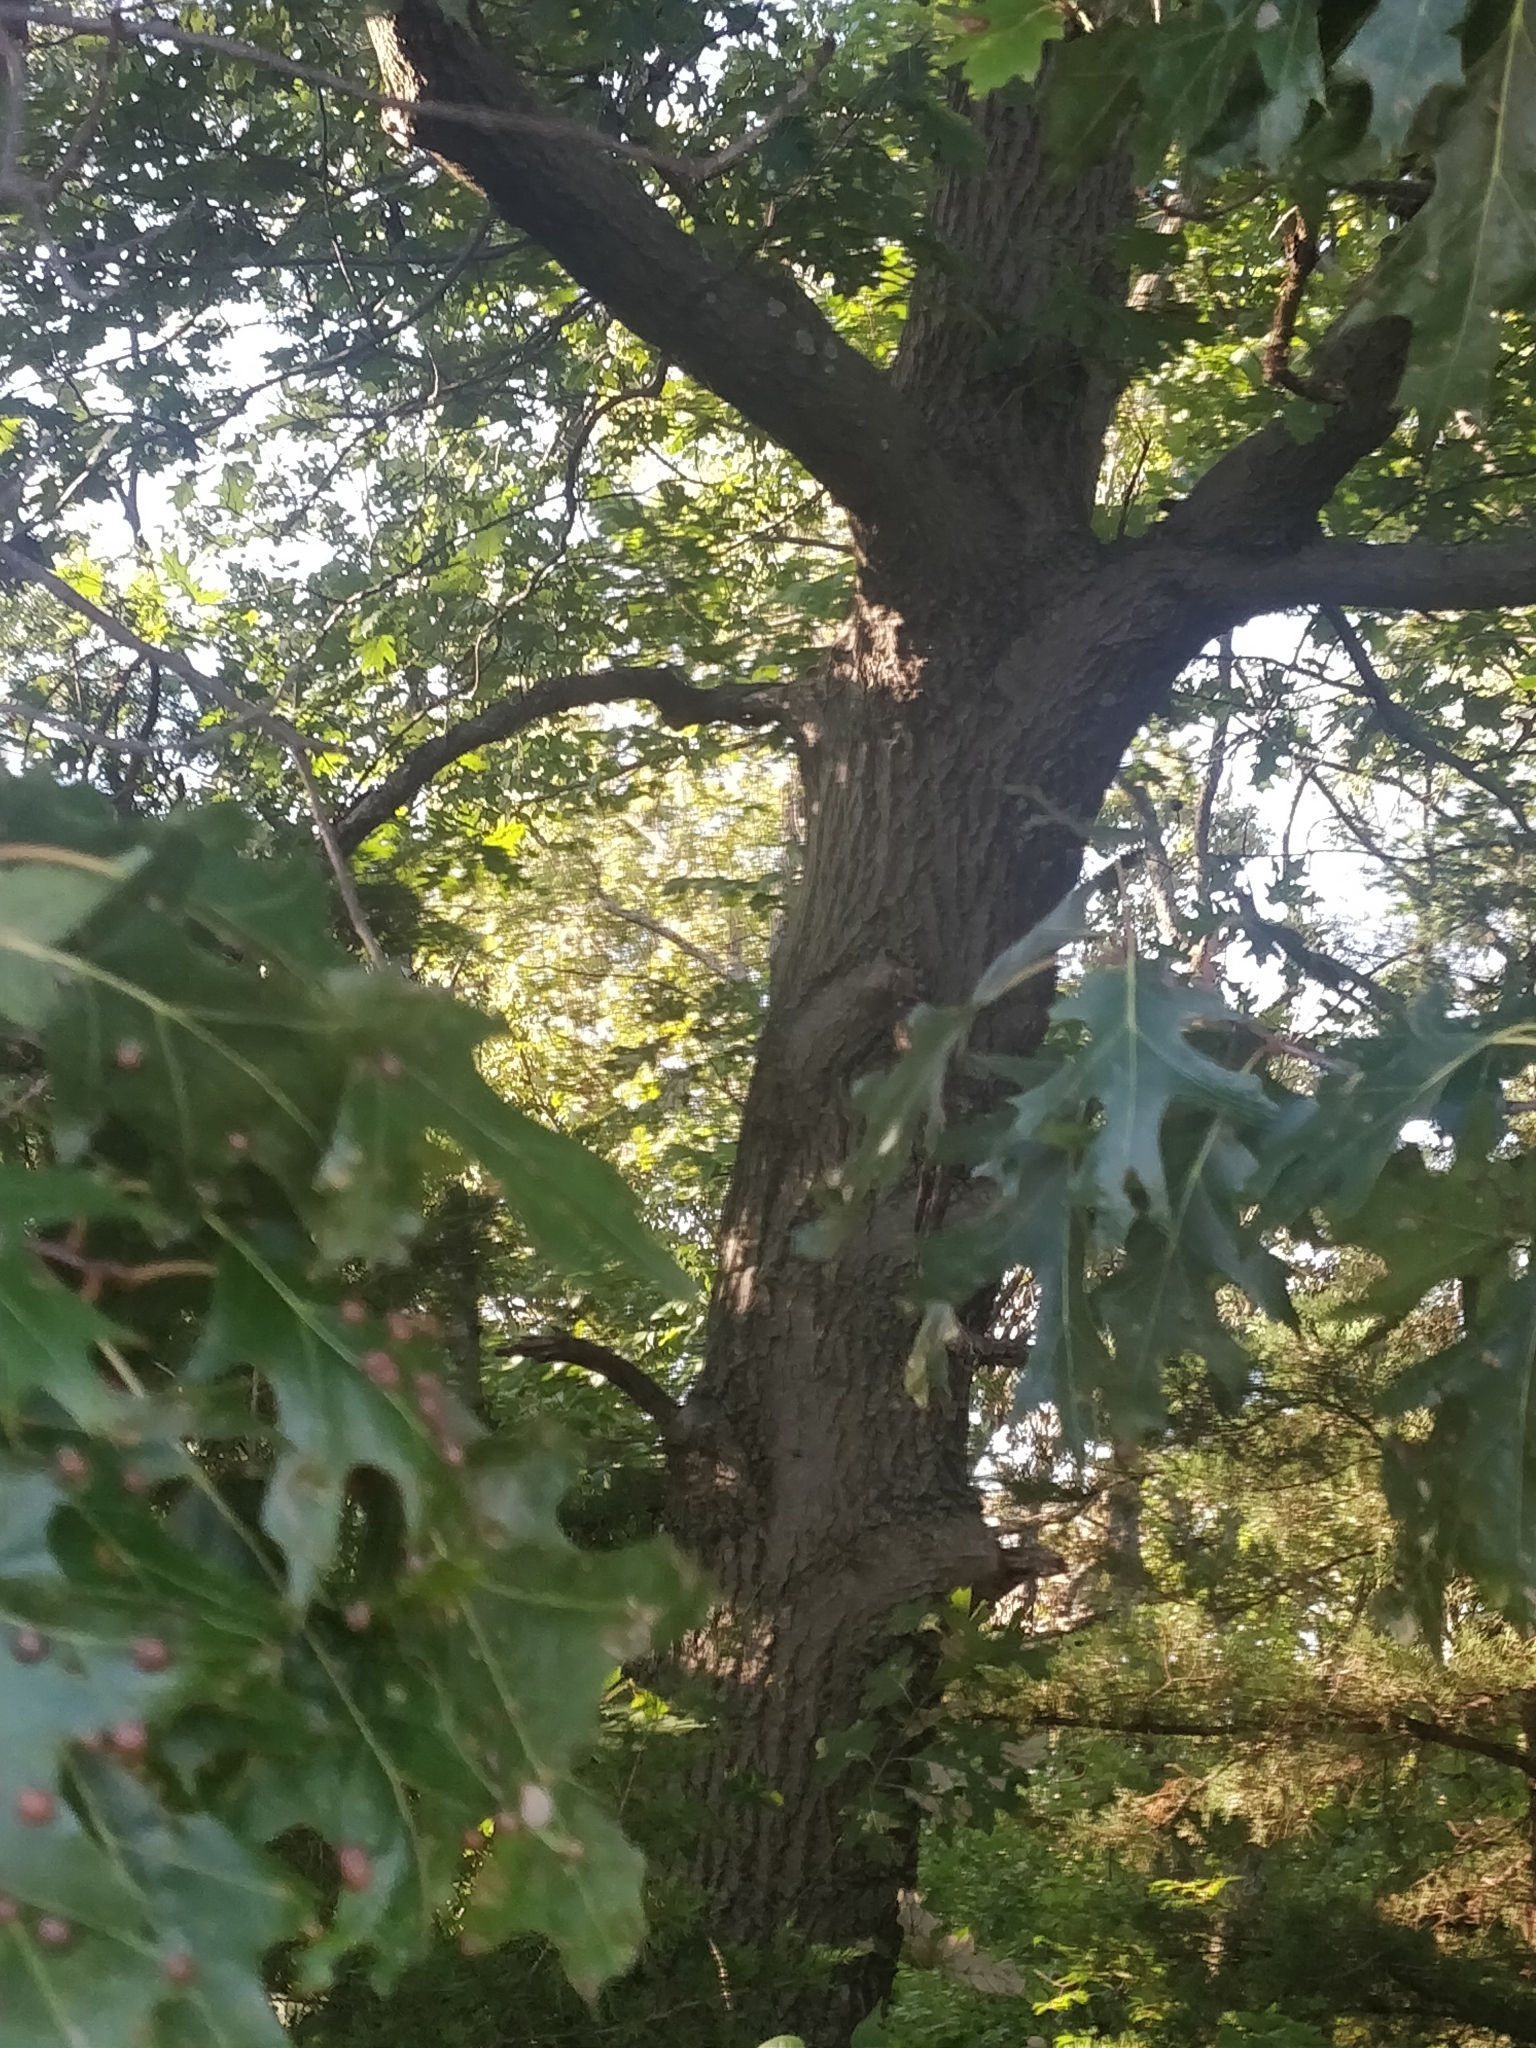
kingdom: Plantae
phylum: Tracheophyta
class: Magnoliopsida
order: Fagales
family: Fagaceae
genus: Quercus
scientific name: Quercus shumardii
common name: Shumard oak
